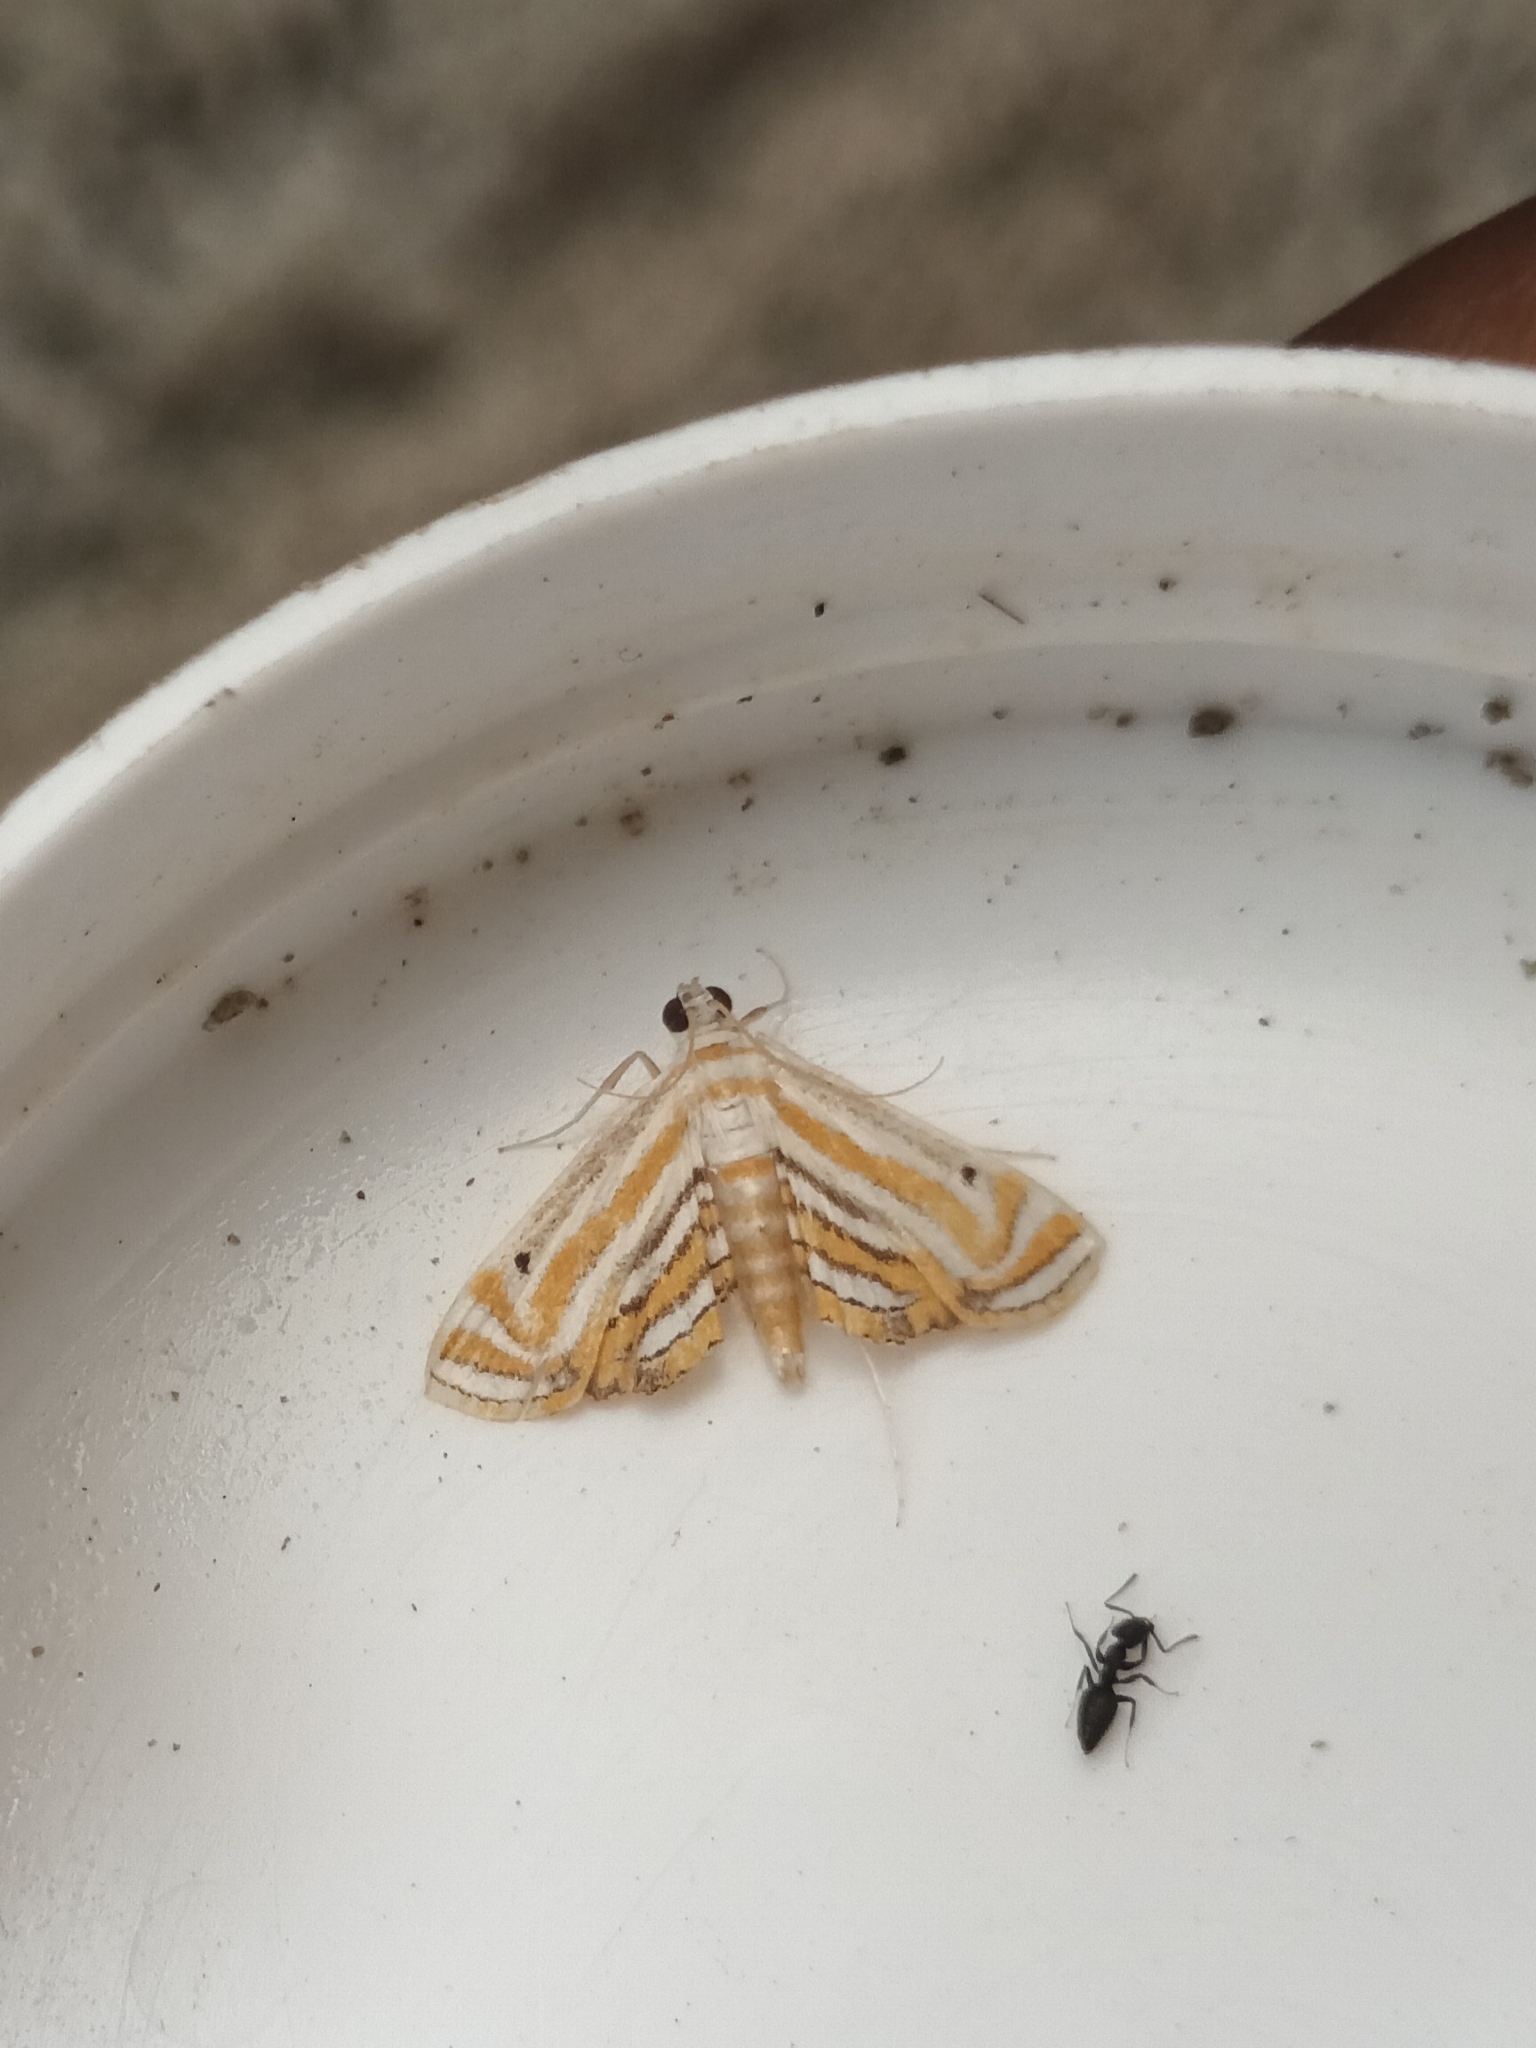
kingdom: Animalia
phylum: Arthropoda
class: Insecta
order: Lepidoptera
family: Crambidae
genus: Parapoynx
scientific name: Parapoynx villidalis
